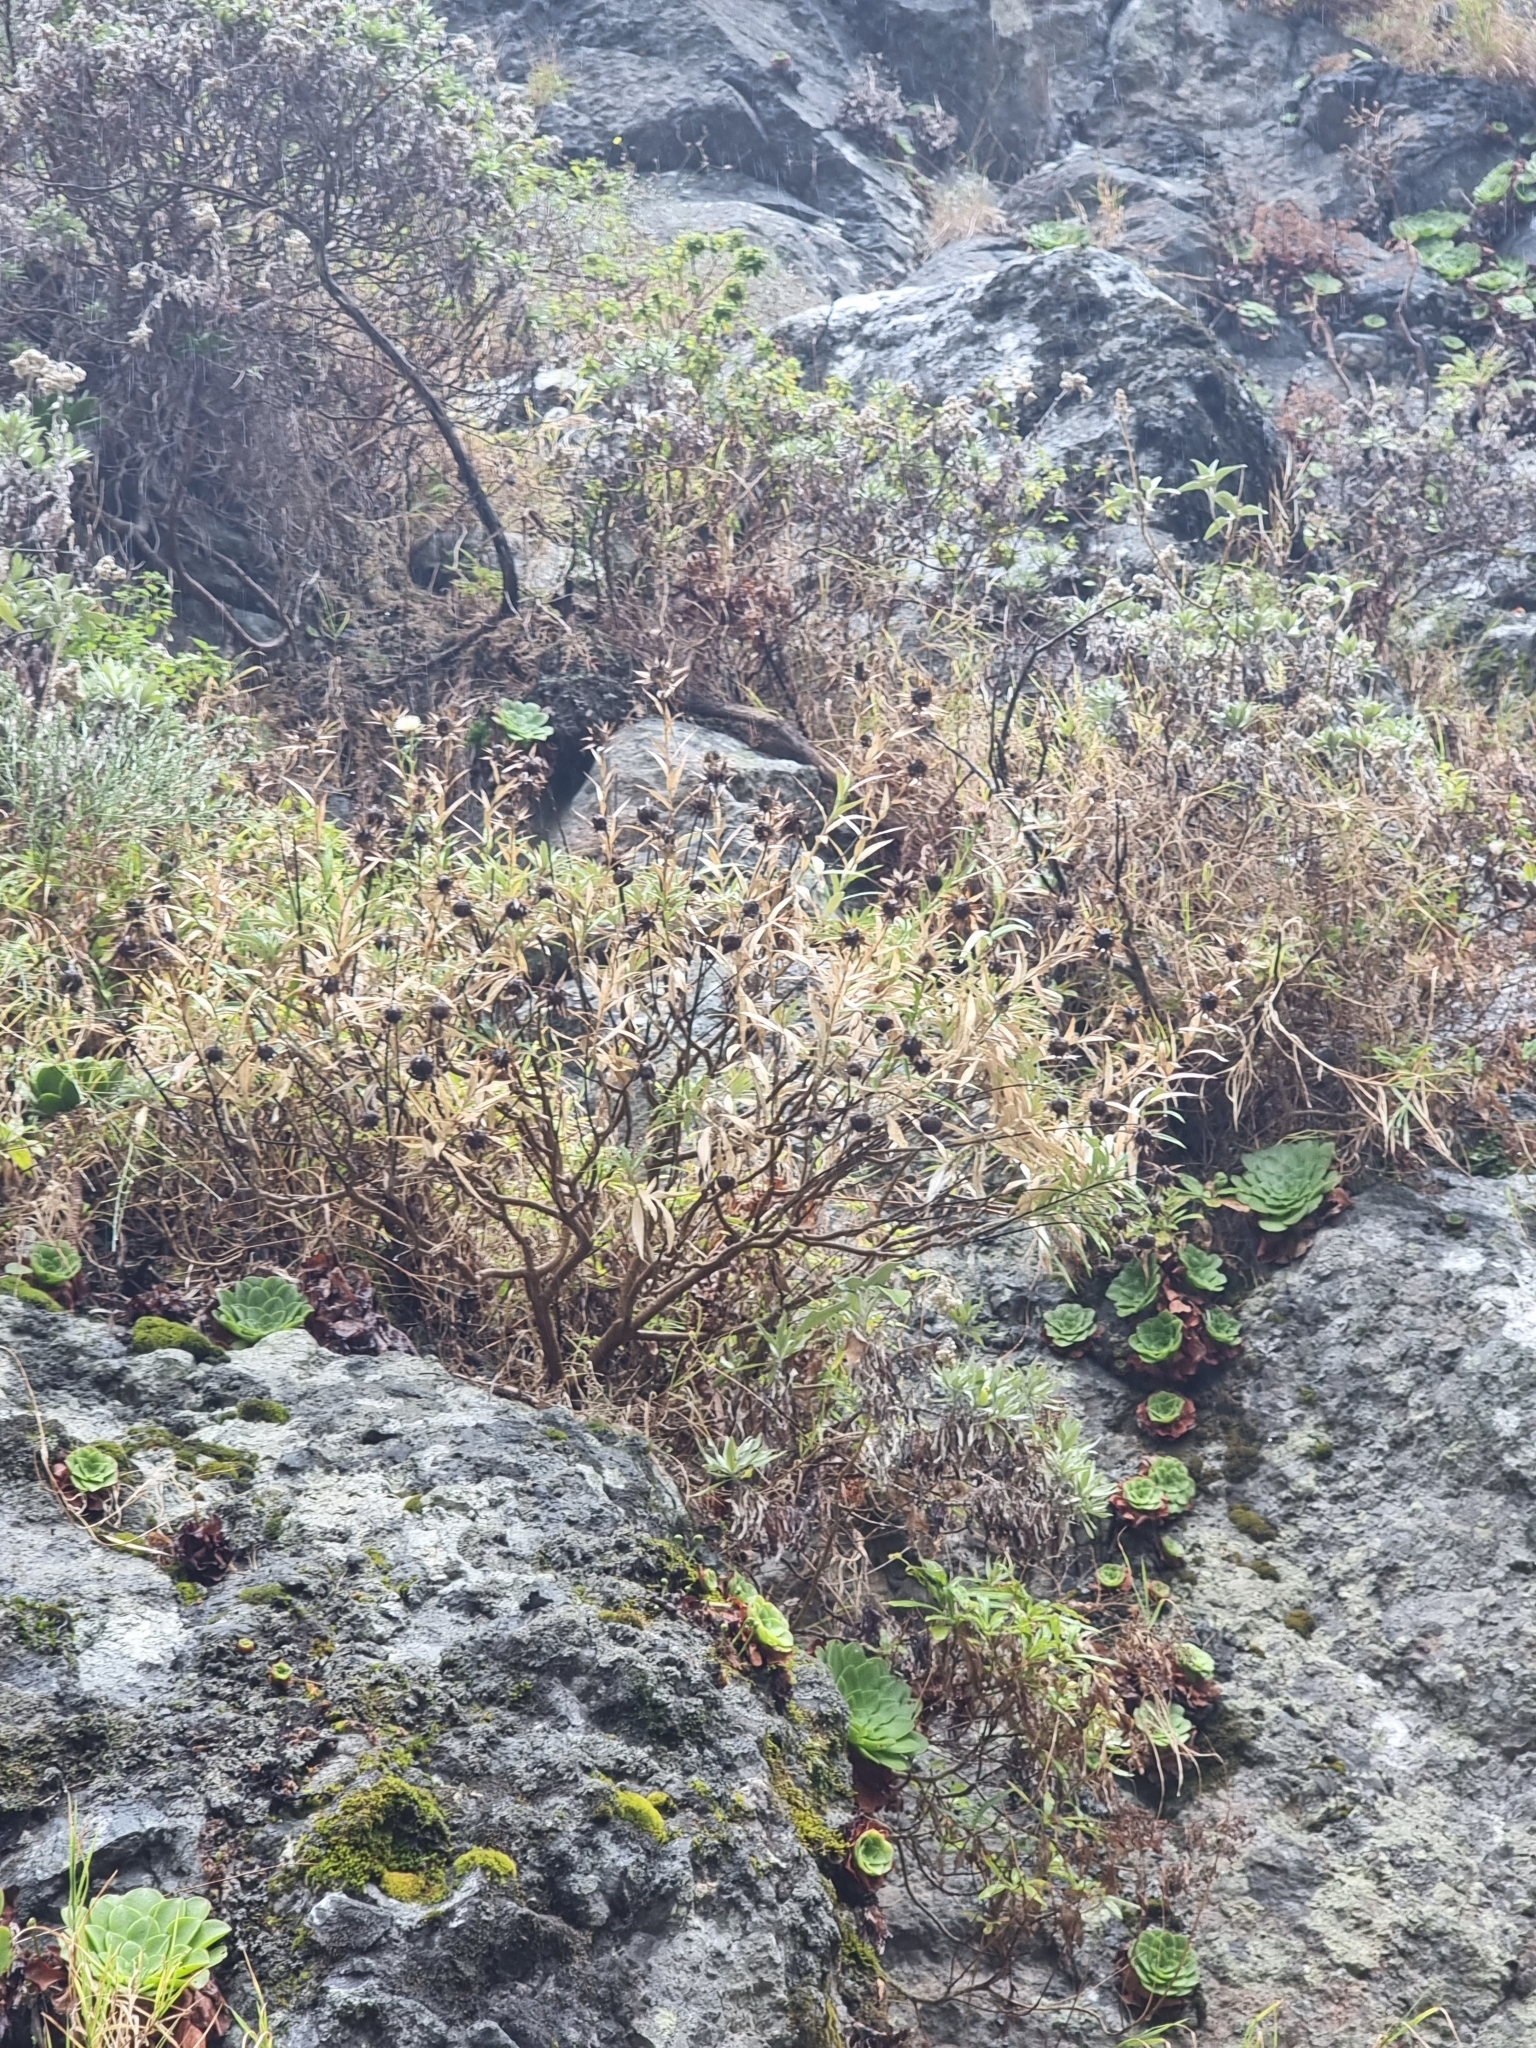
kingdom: Plantae
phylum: Tracheophyta
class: Magnoliopsida
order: Asterales
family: Asteraceae
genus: Carlina
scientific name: Carlina salicifolia
